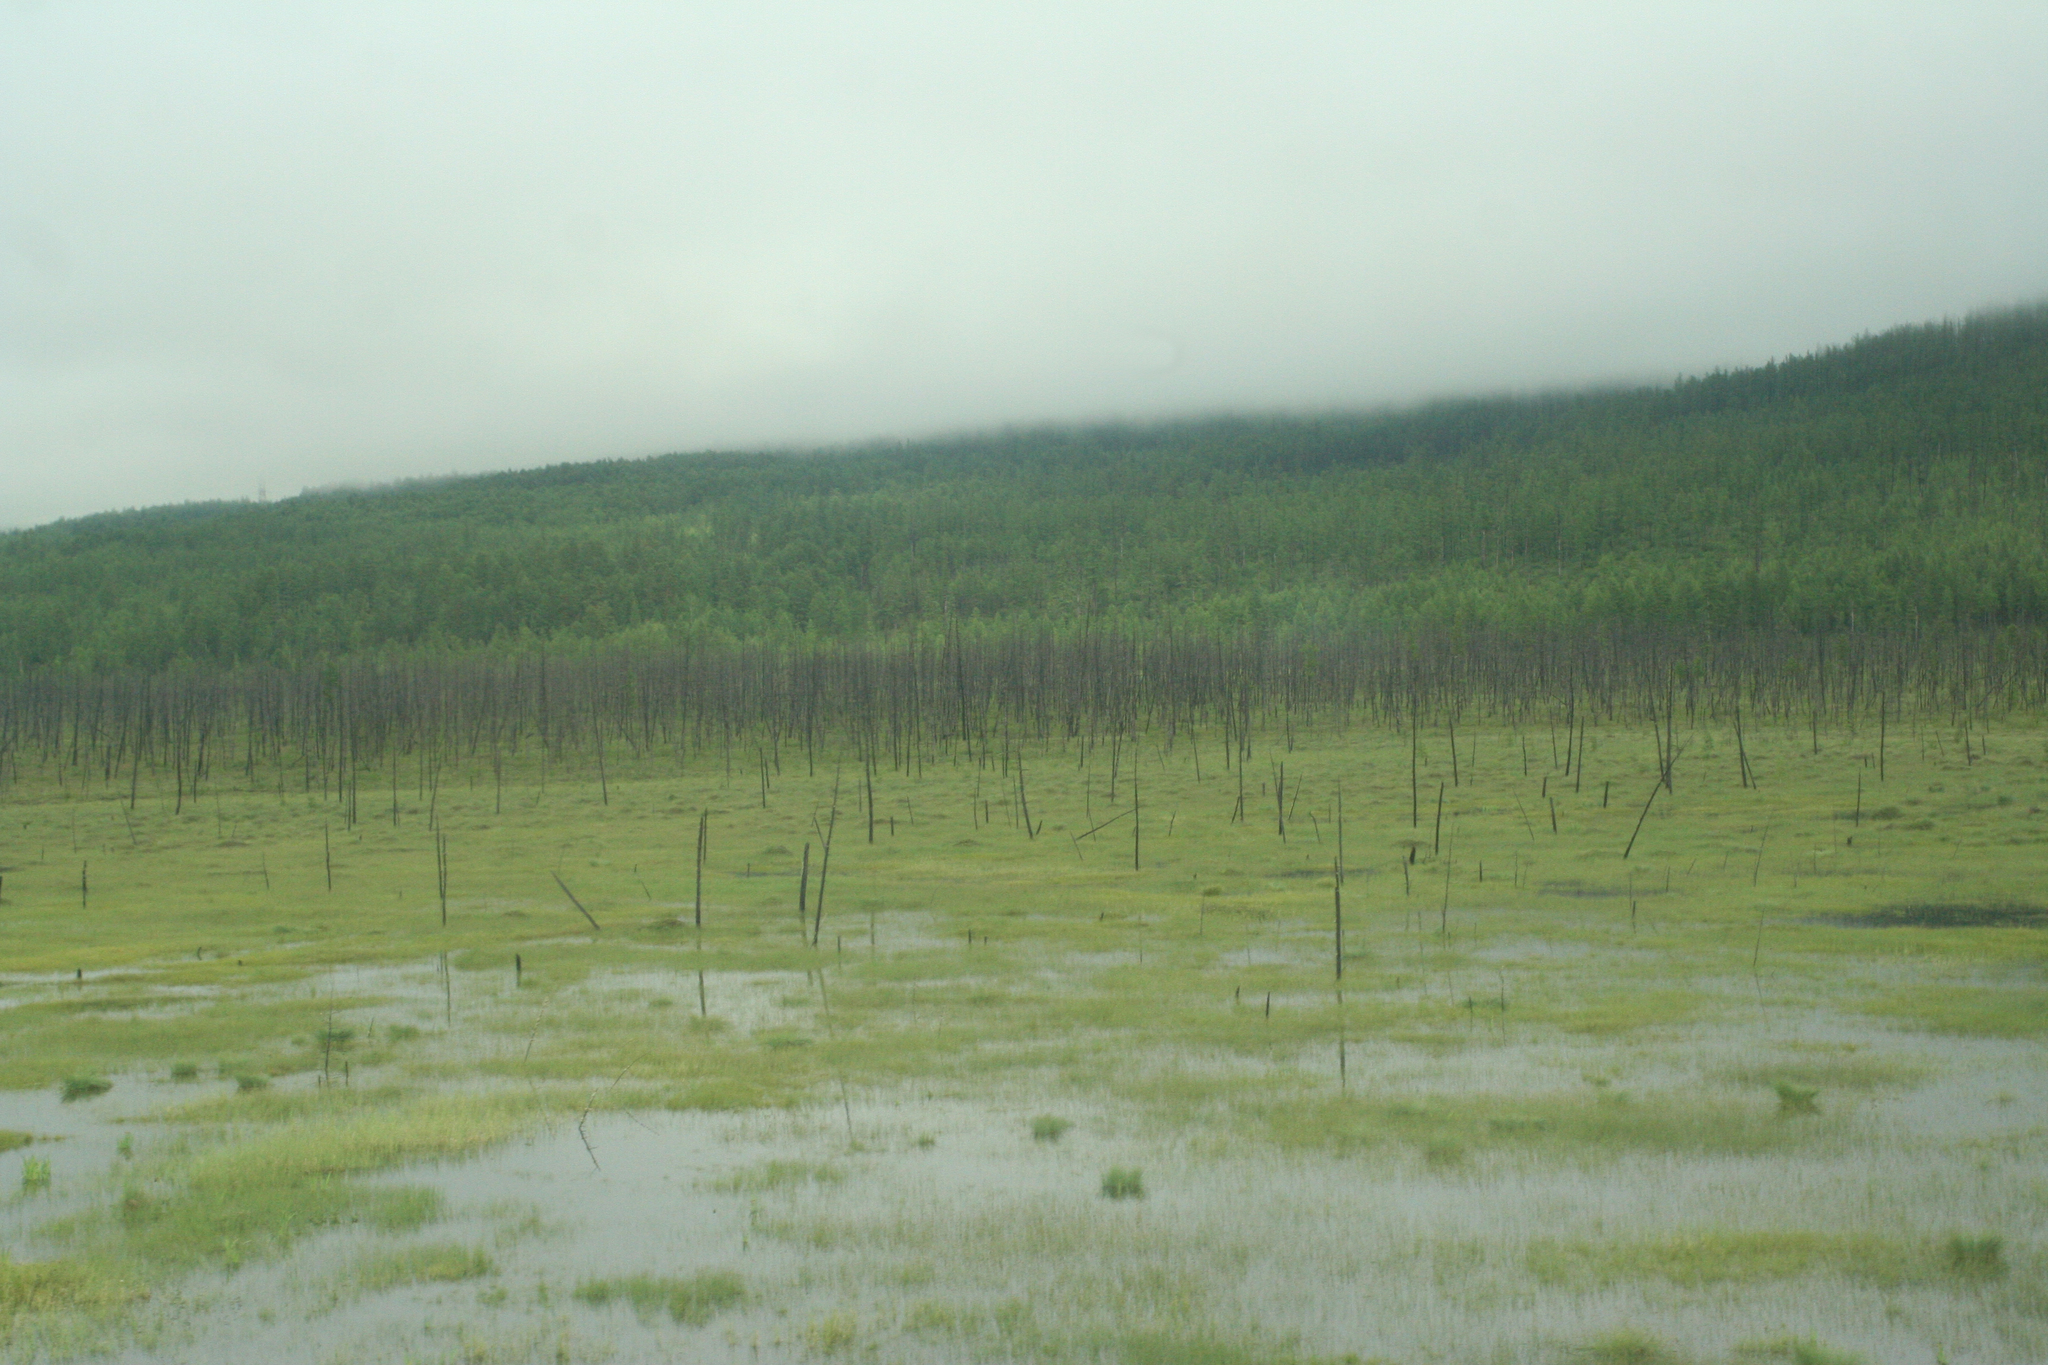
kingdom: Plantae
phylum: Tracheophyta
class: Pinopsida
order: Pinales
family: Pinaceae
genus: Larix
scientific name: Larix gmelinii
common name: Dahurian larch
